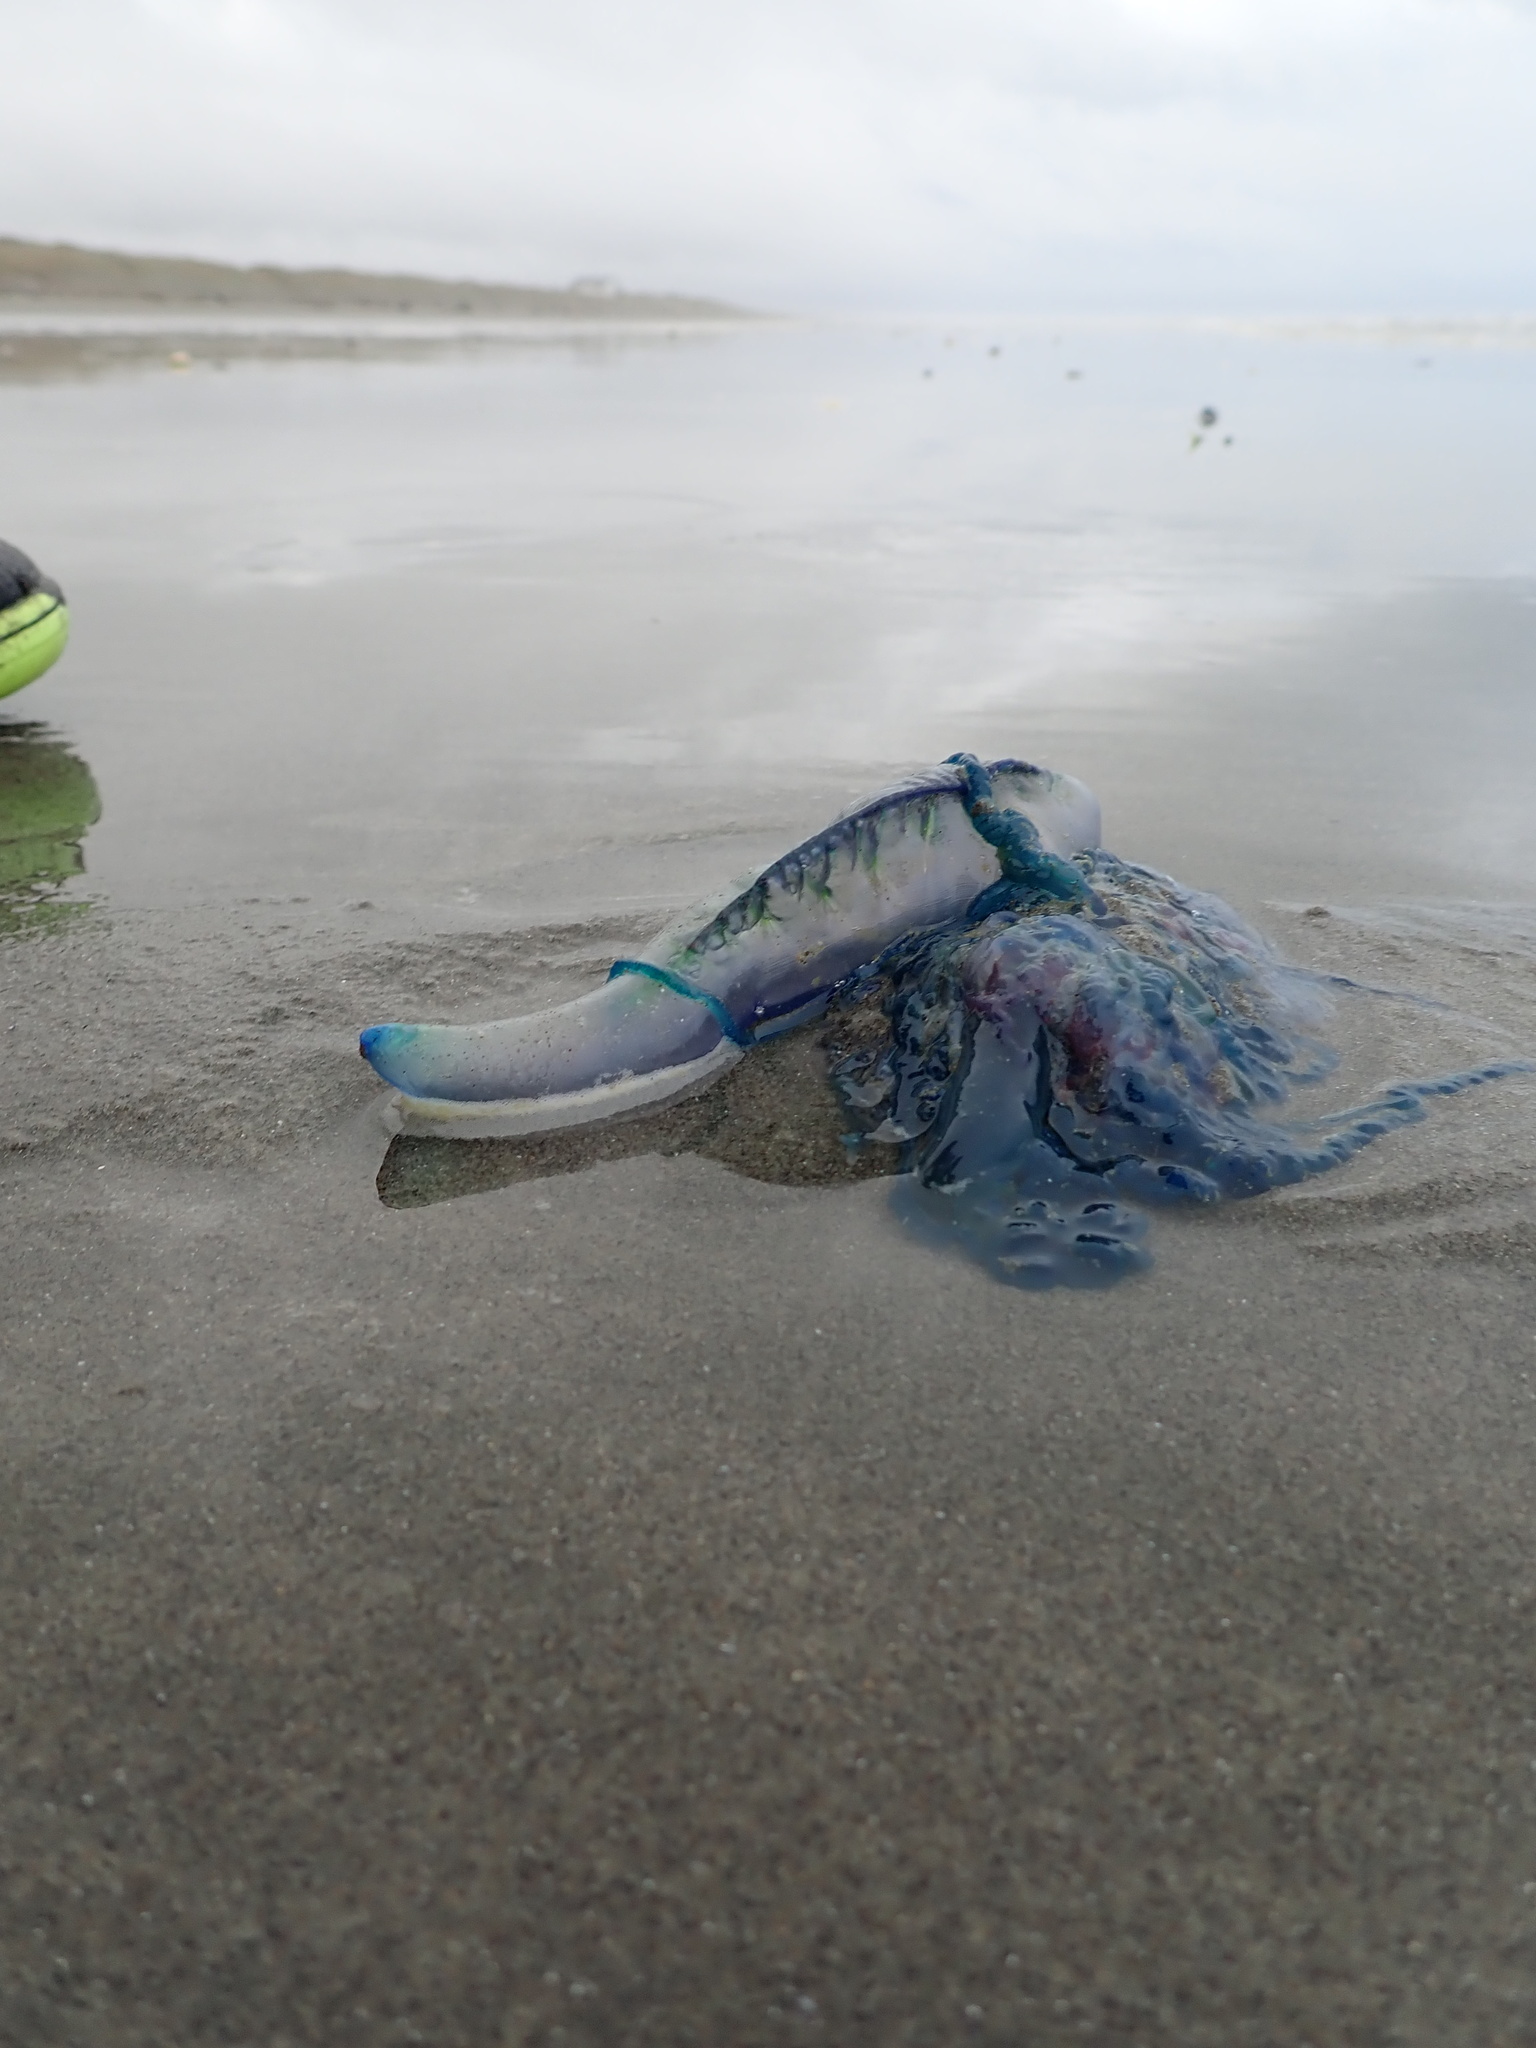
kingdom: Animalia
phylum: Cnidaria
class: Hydrozoa
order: Siphonophorae
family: Physaliidae
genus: Physalia
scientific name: Physalia physalis
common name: Portuguese man-of-war
